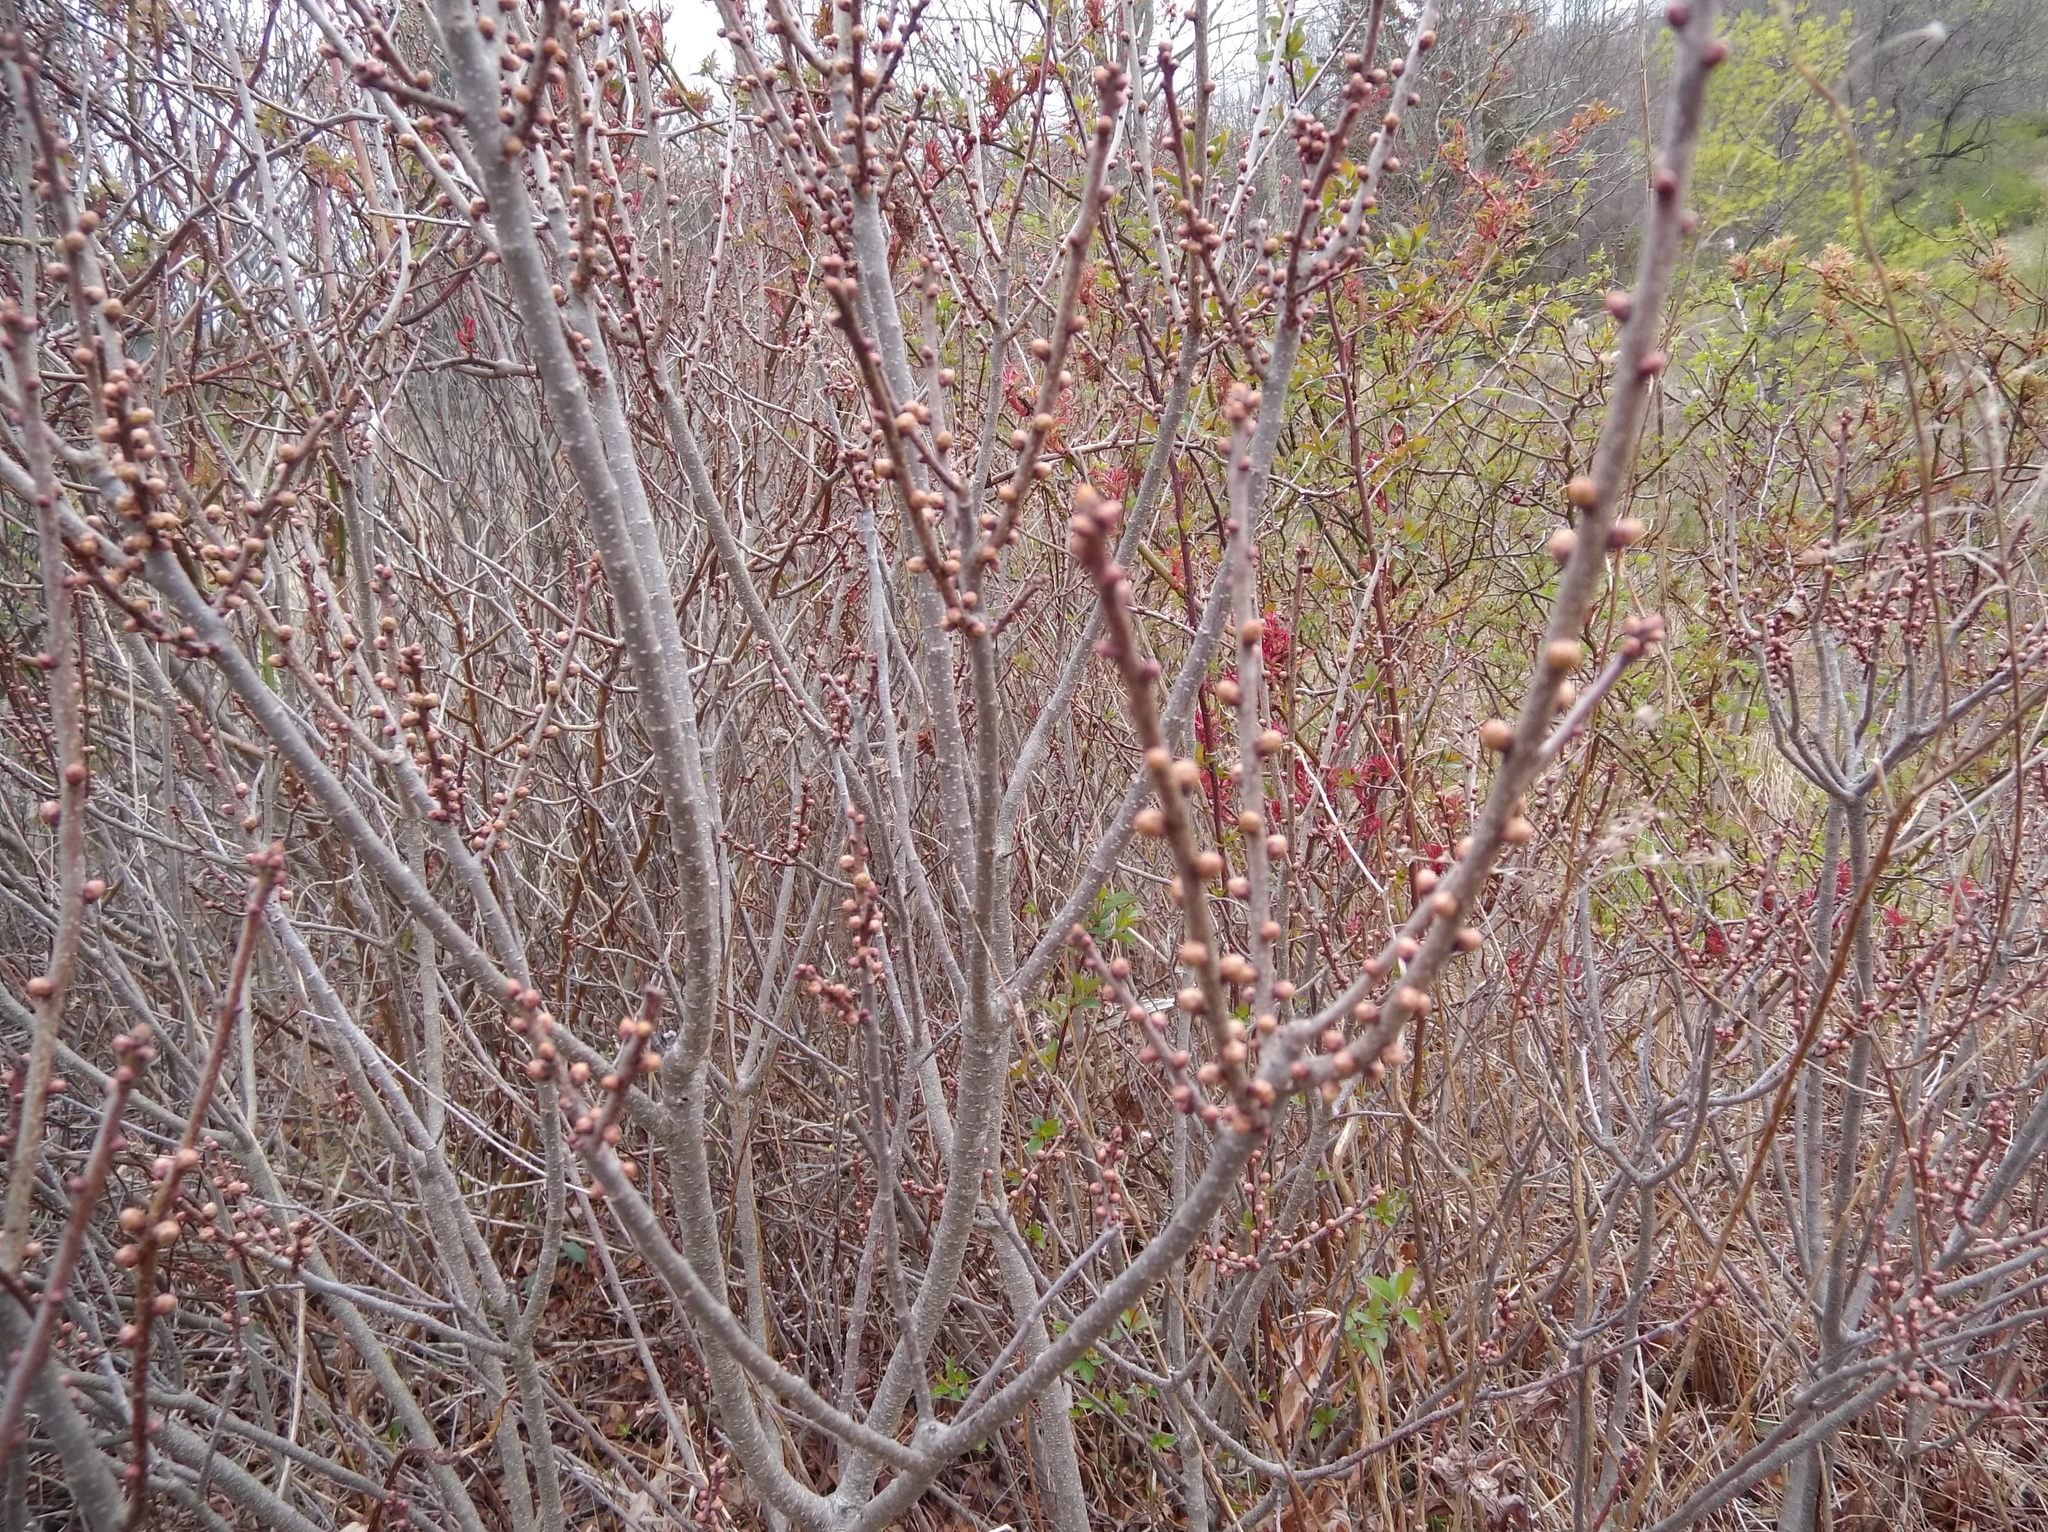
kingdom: Plantae
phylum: Tracheophyta
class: Magnoliopsida
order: Fagales
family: Myricaceae
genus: Morella
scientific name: Morella pensylvanica
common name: Northern bayberry
